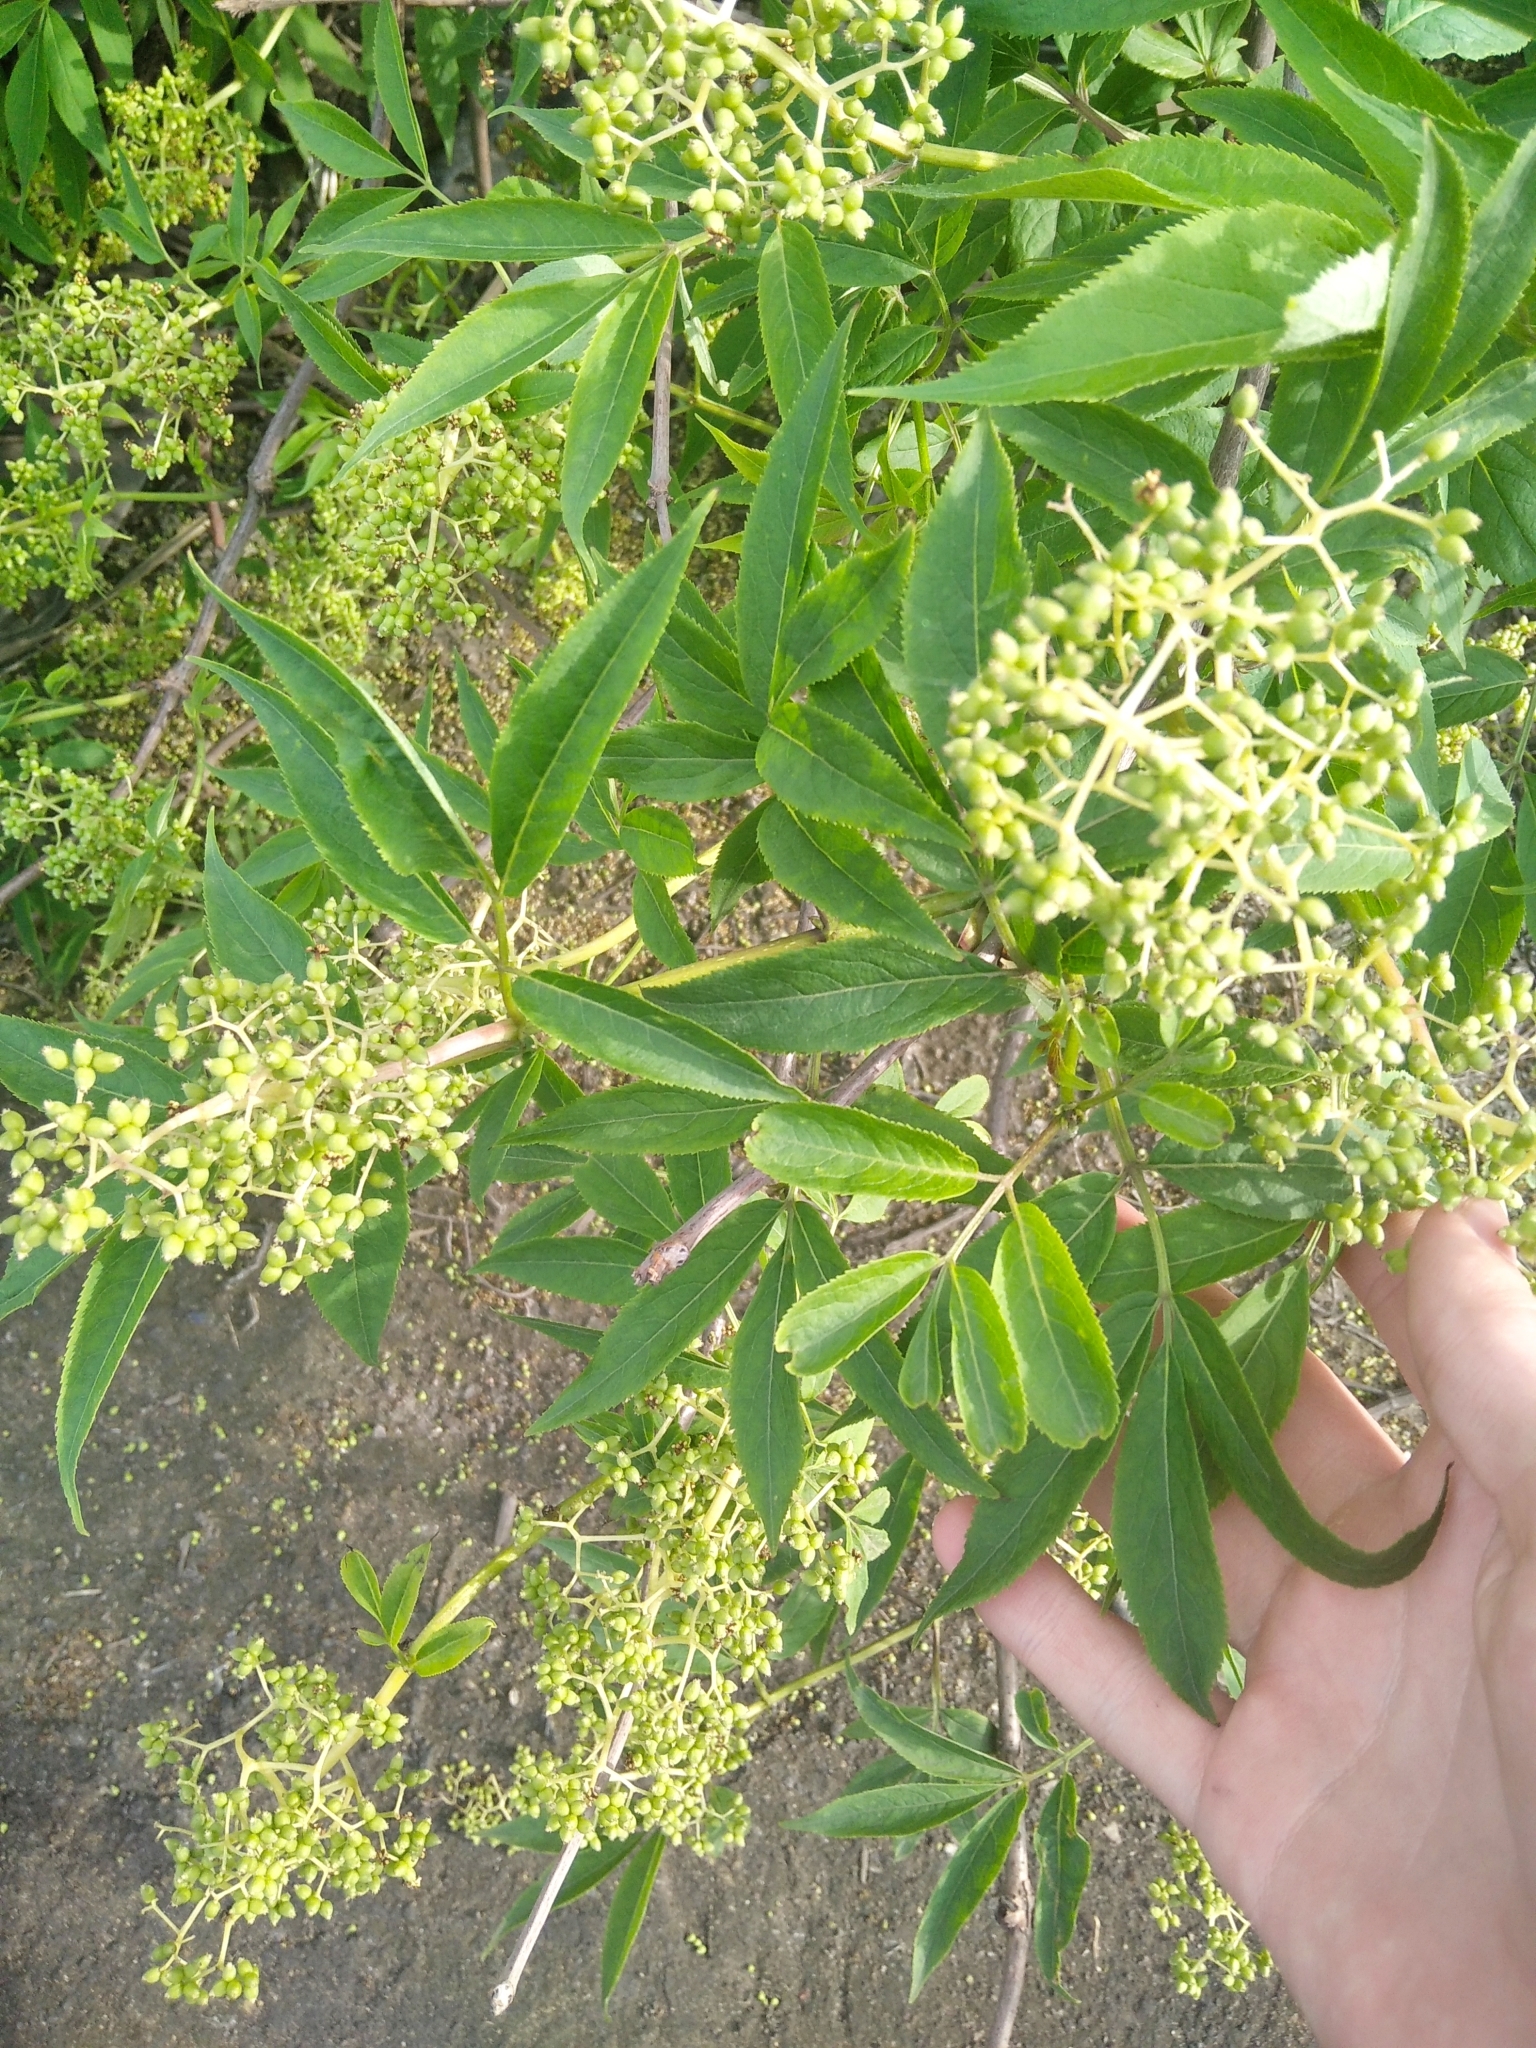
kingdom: Plantae
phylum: Tracheophyta
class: Magnoliopsida
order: Dipsacales
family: Viburnaceae
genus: Sambucus
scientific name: Sambucus racemosa
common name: Red-berried elder
